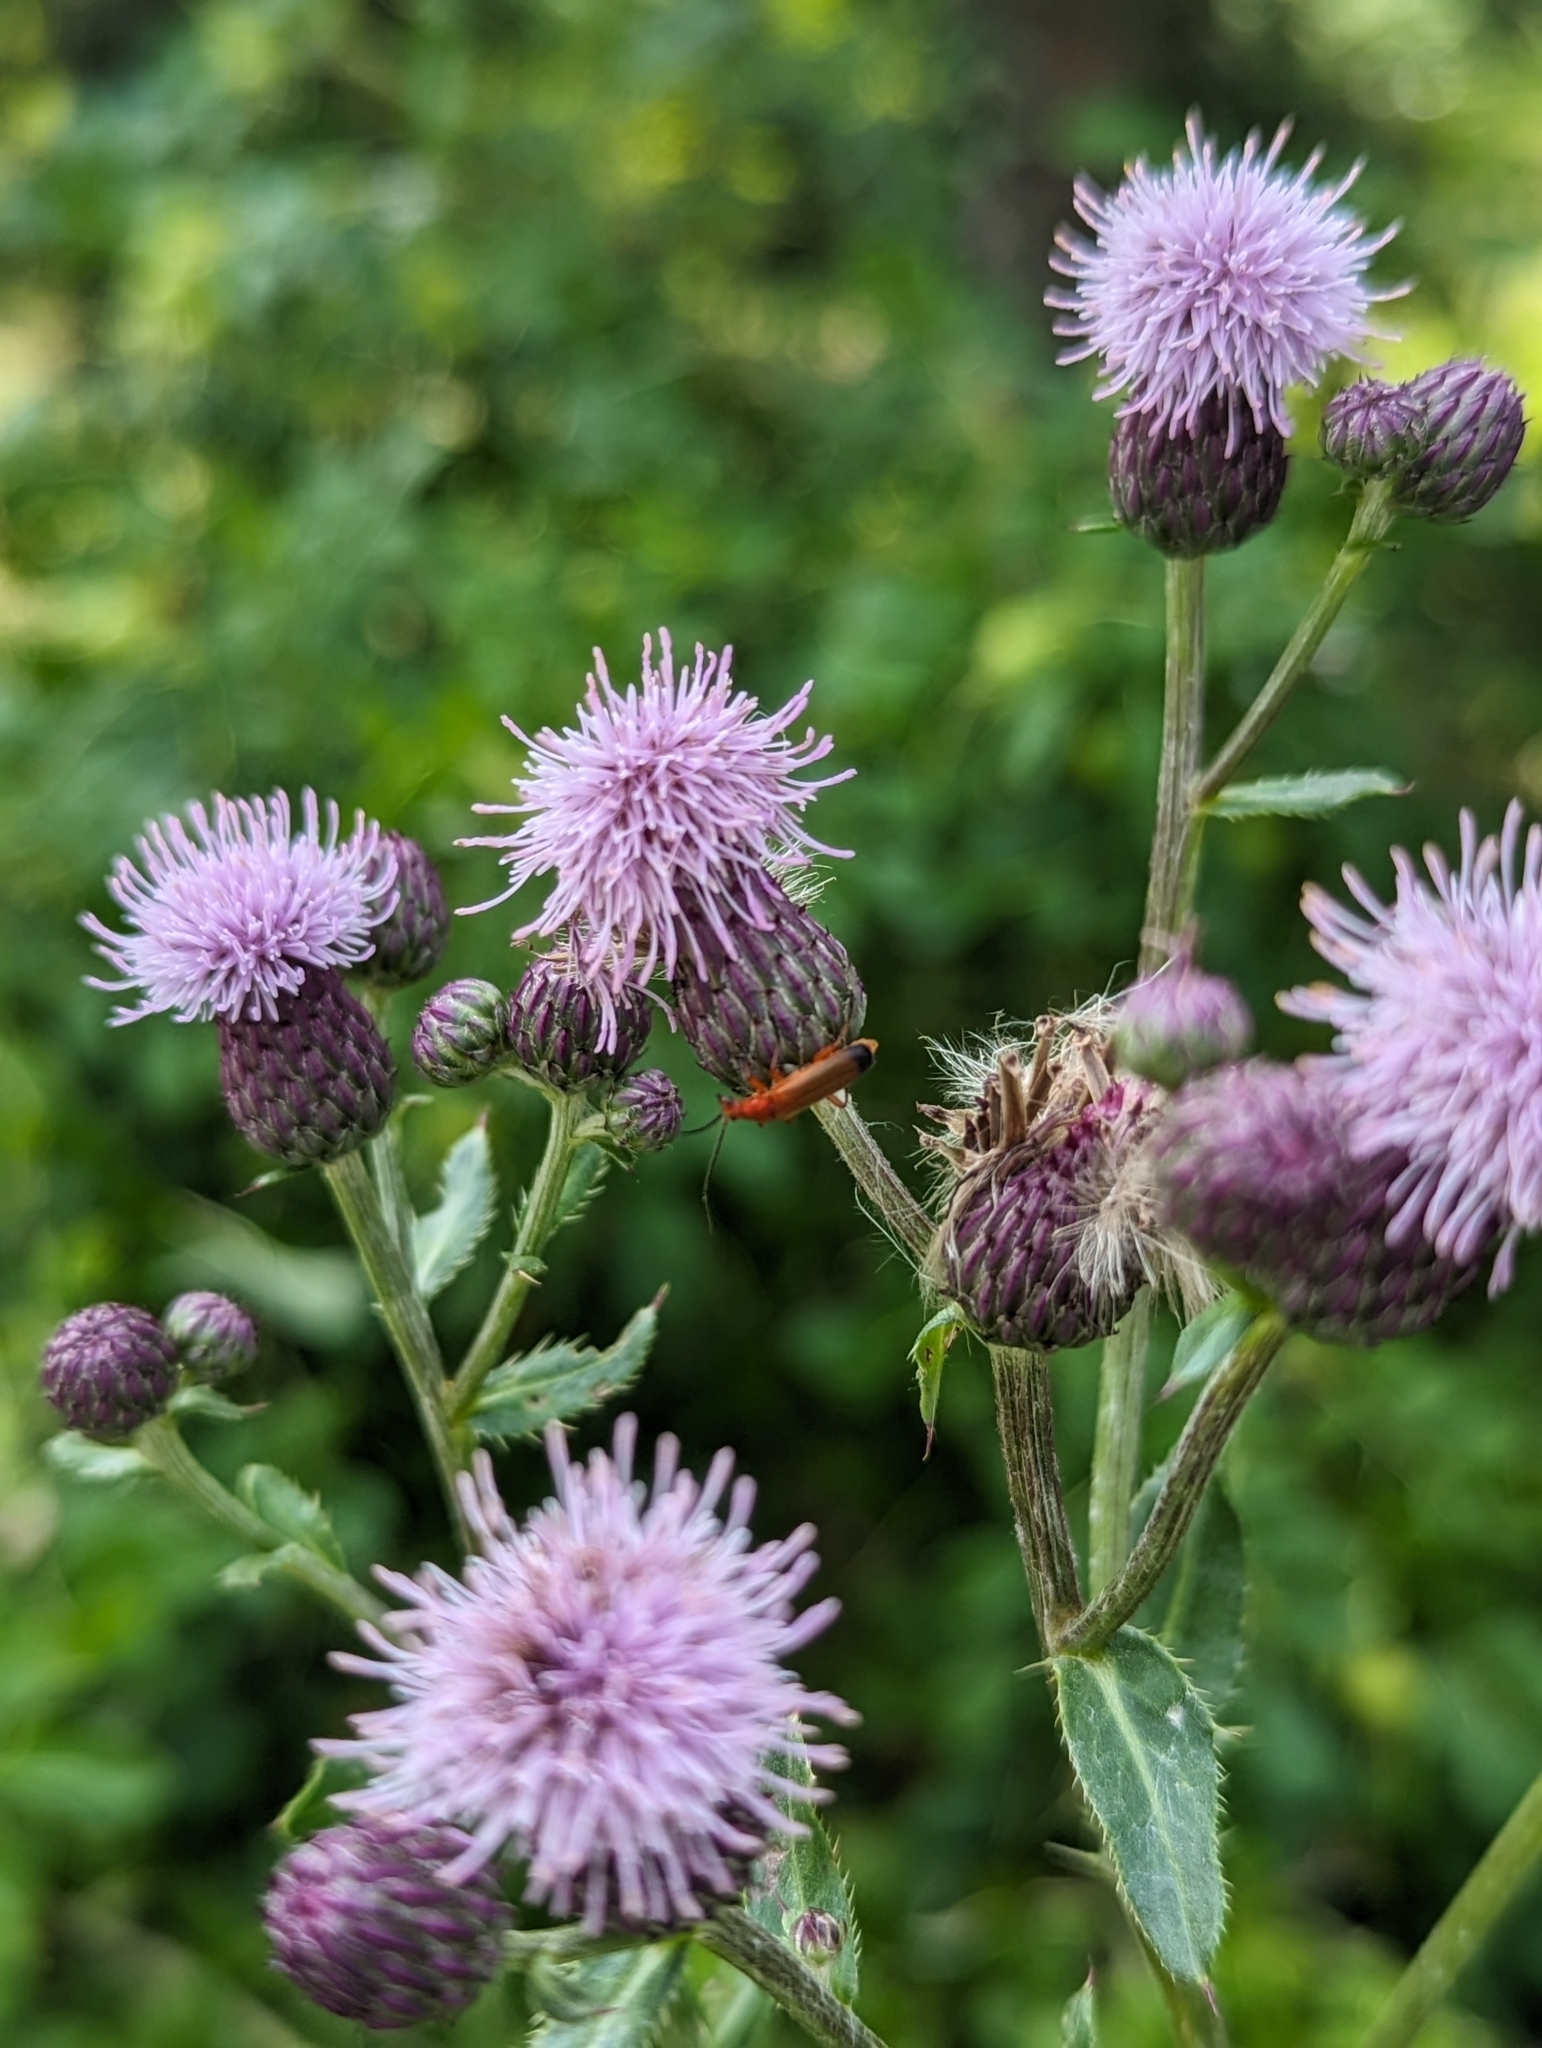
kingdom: Animalia
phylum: Arthropoda
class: Insecta
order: Coleoptera
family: Cantharidae
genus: Rhagonycha
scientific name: Rhagonycha fulva
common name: Common red soldier beetle
